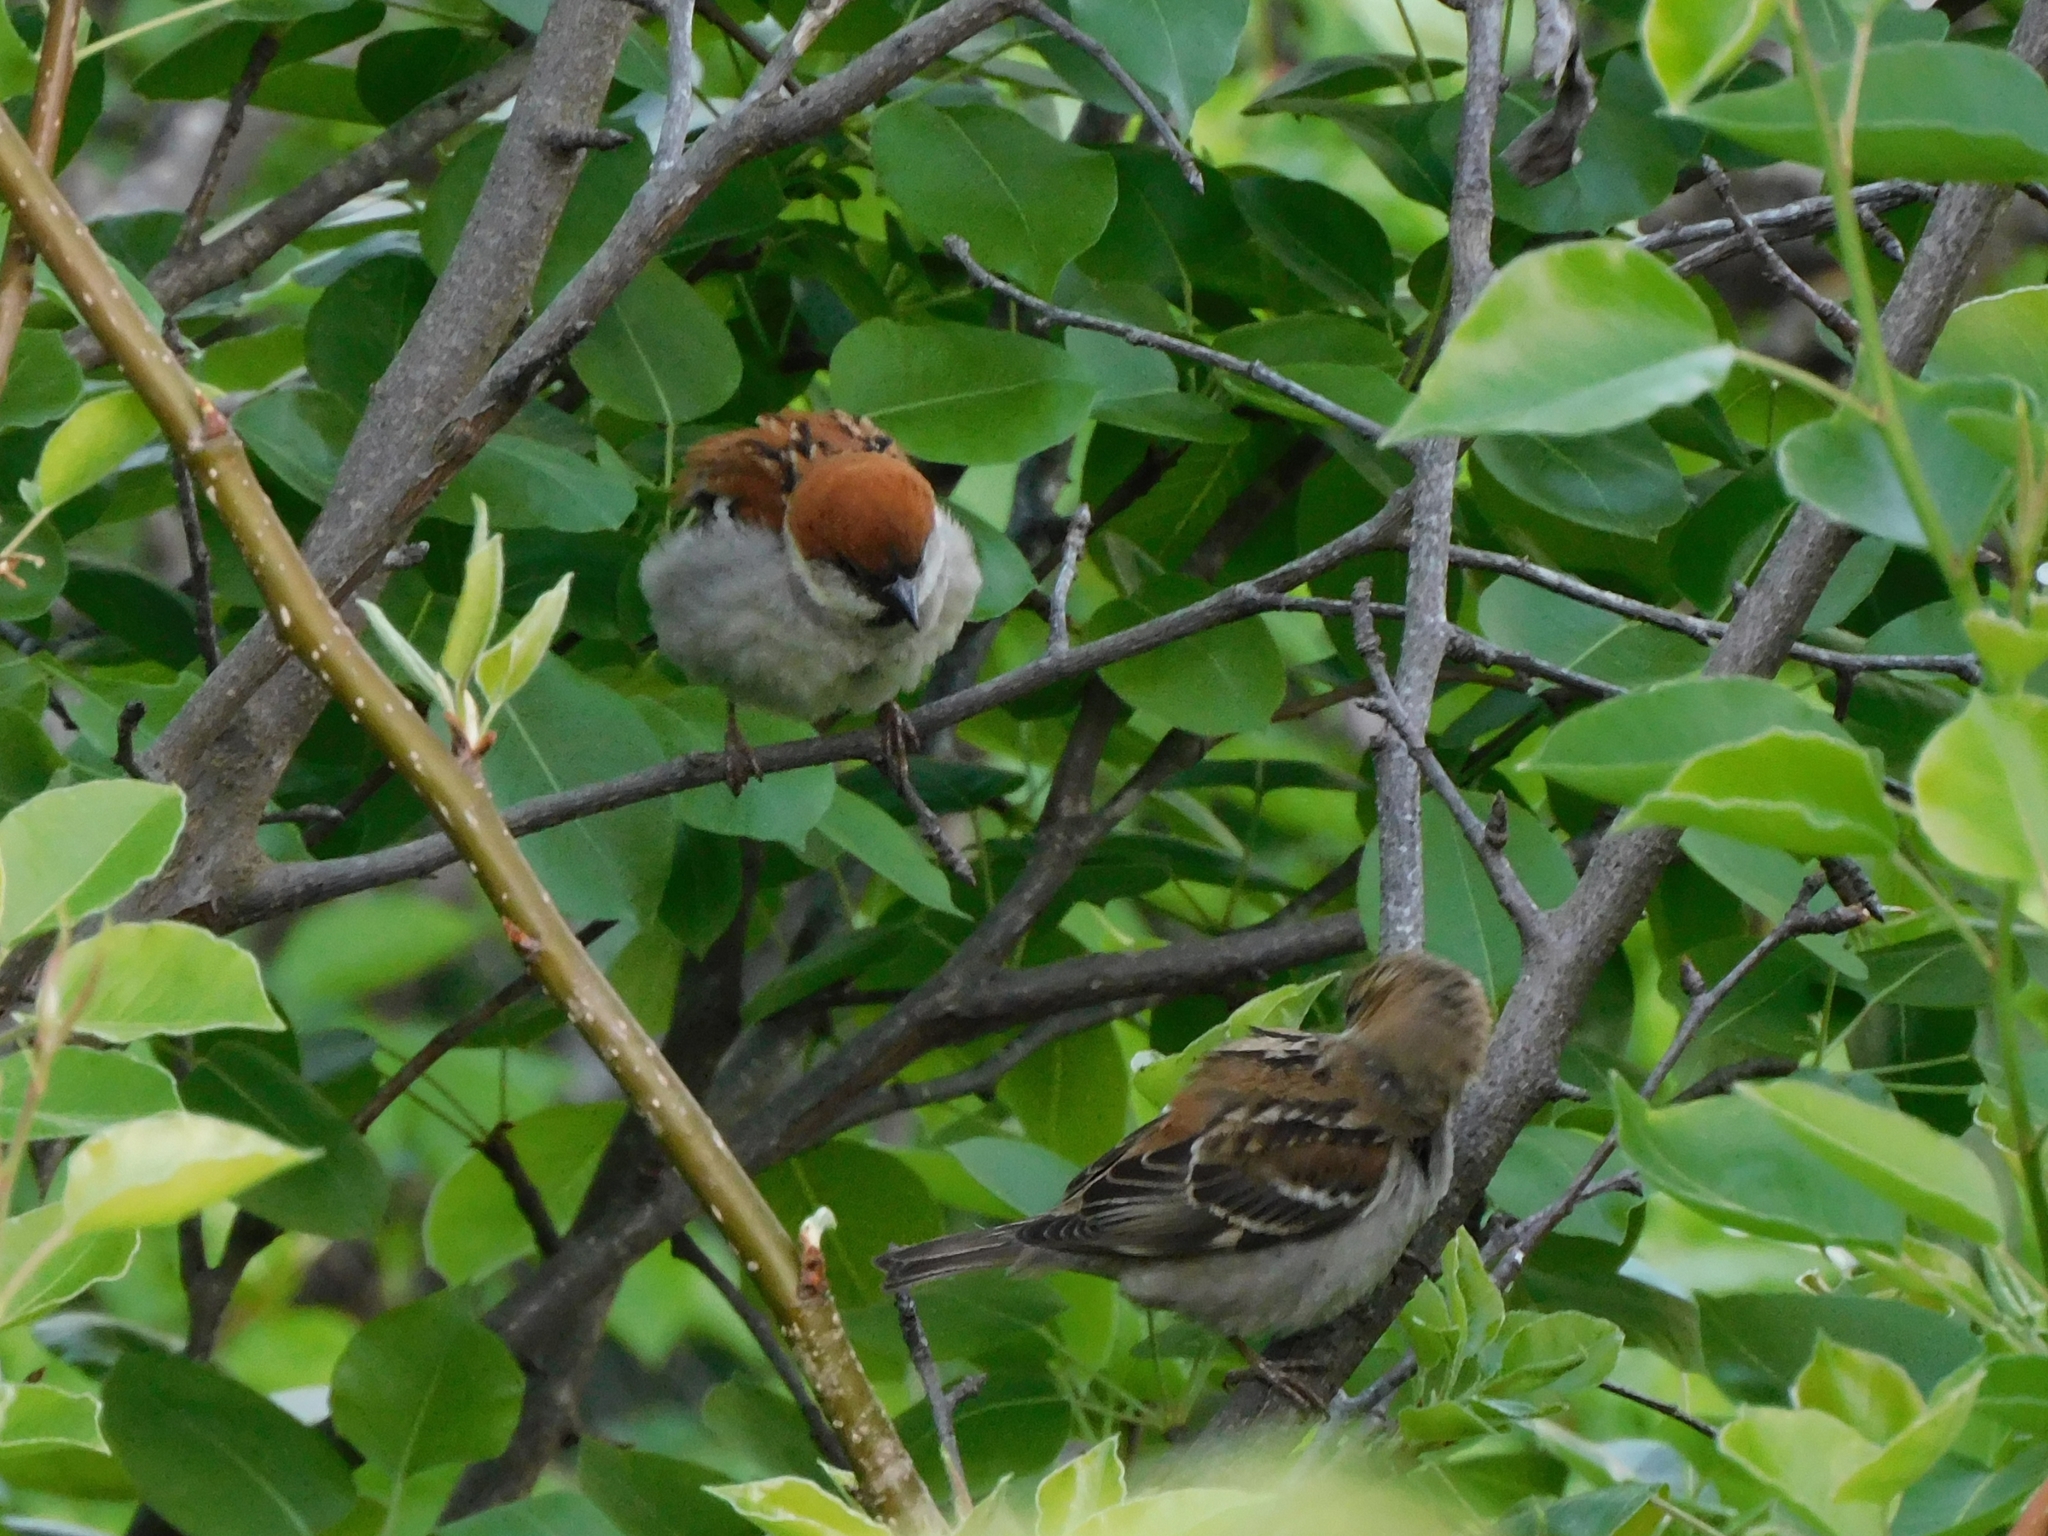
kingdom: Animalia
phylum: Chordata
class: Aves
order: Passeriformes
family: Passeridae
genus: Passer
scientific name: Passer cinnamomeus
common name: Russet sparrow
